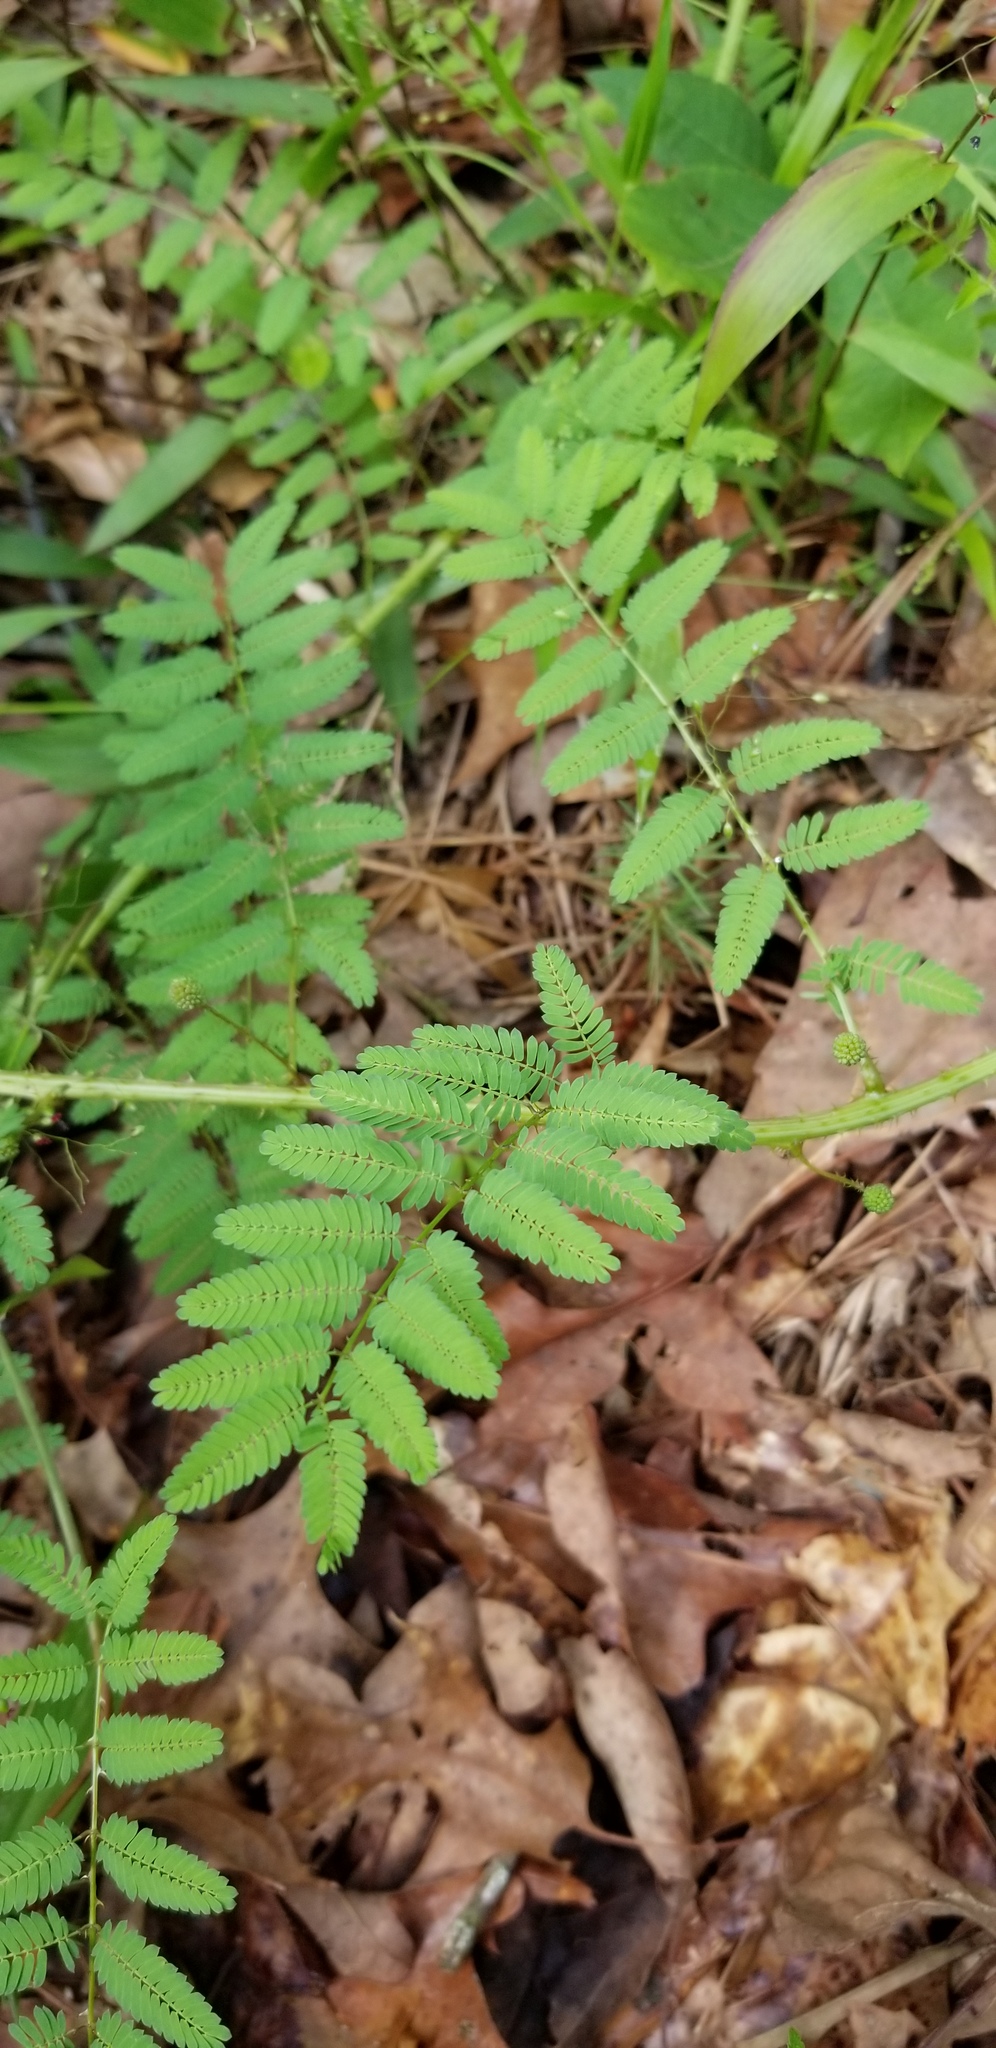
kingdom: Plantae
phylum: Tracheophyta
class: Magnoliopsida
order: Fabales
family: Fabaceae
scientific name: Fabaceae
